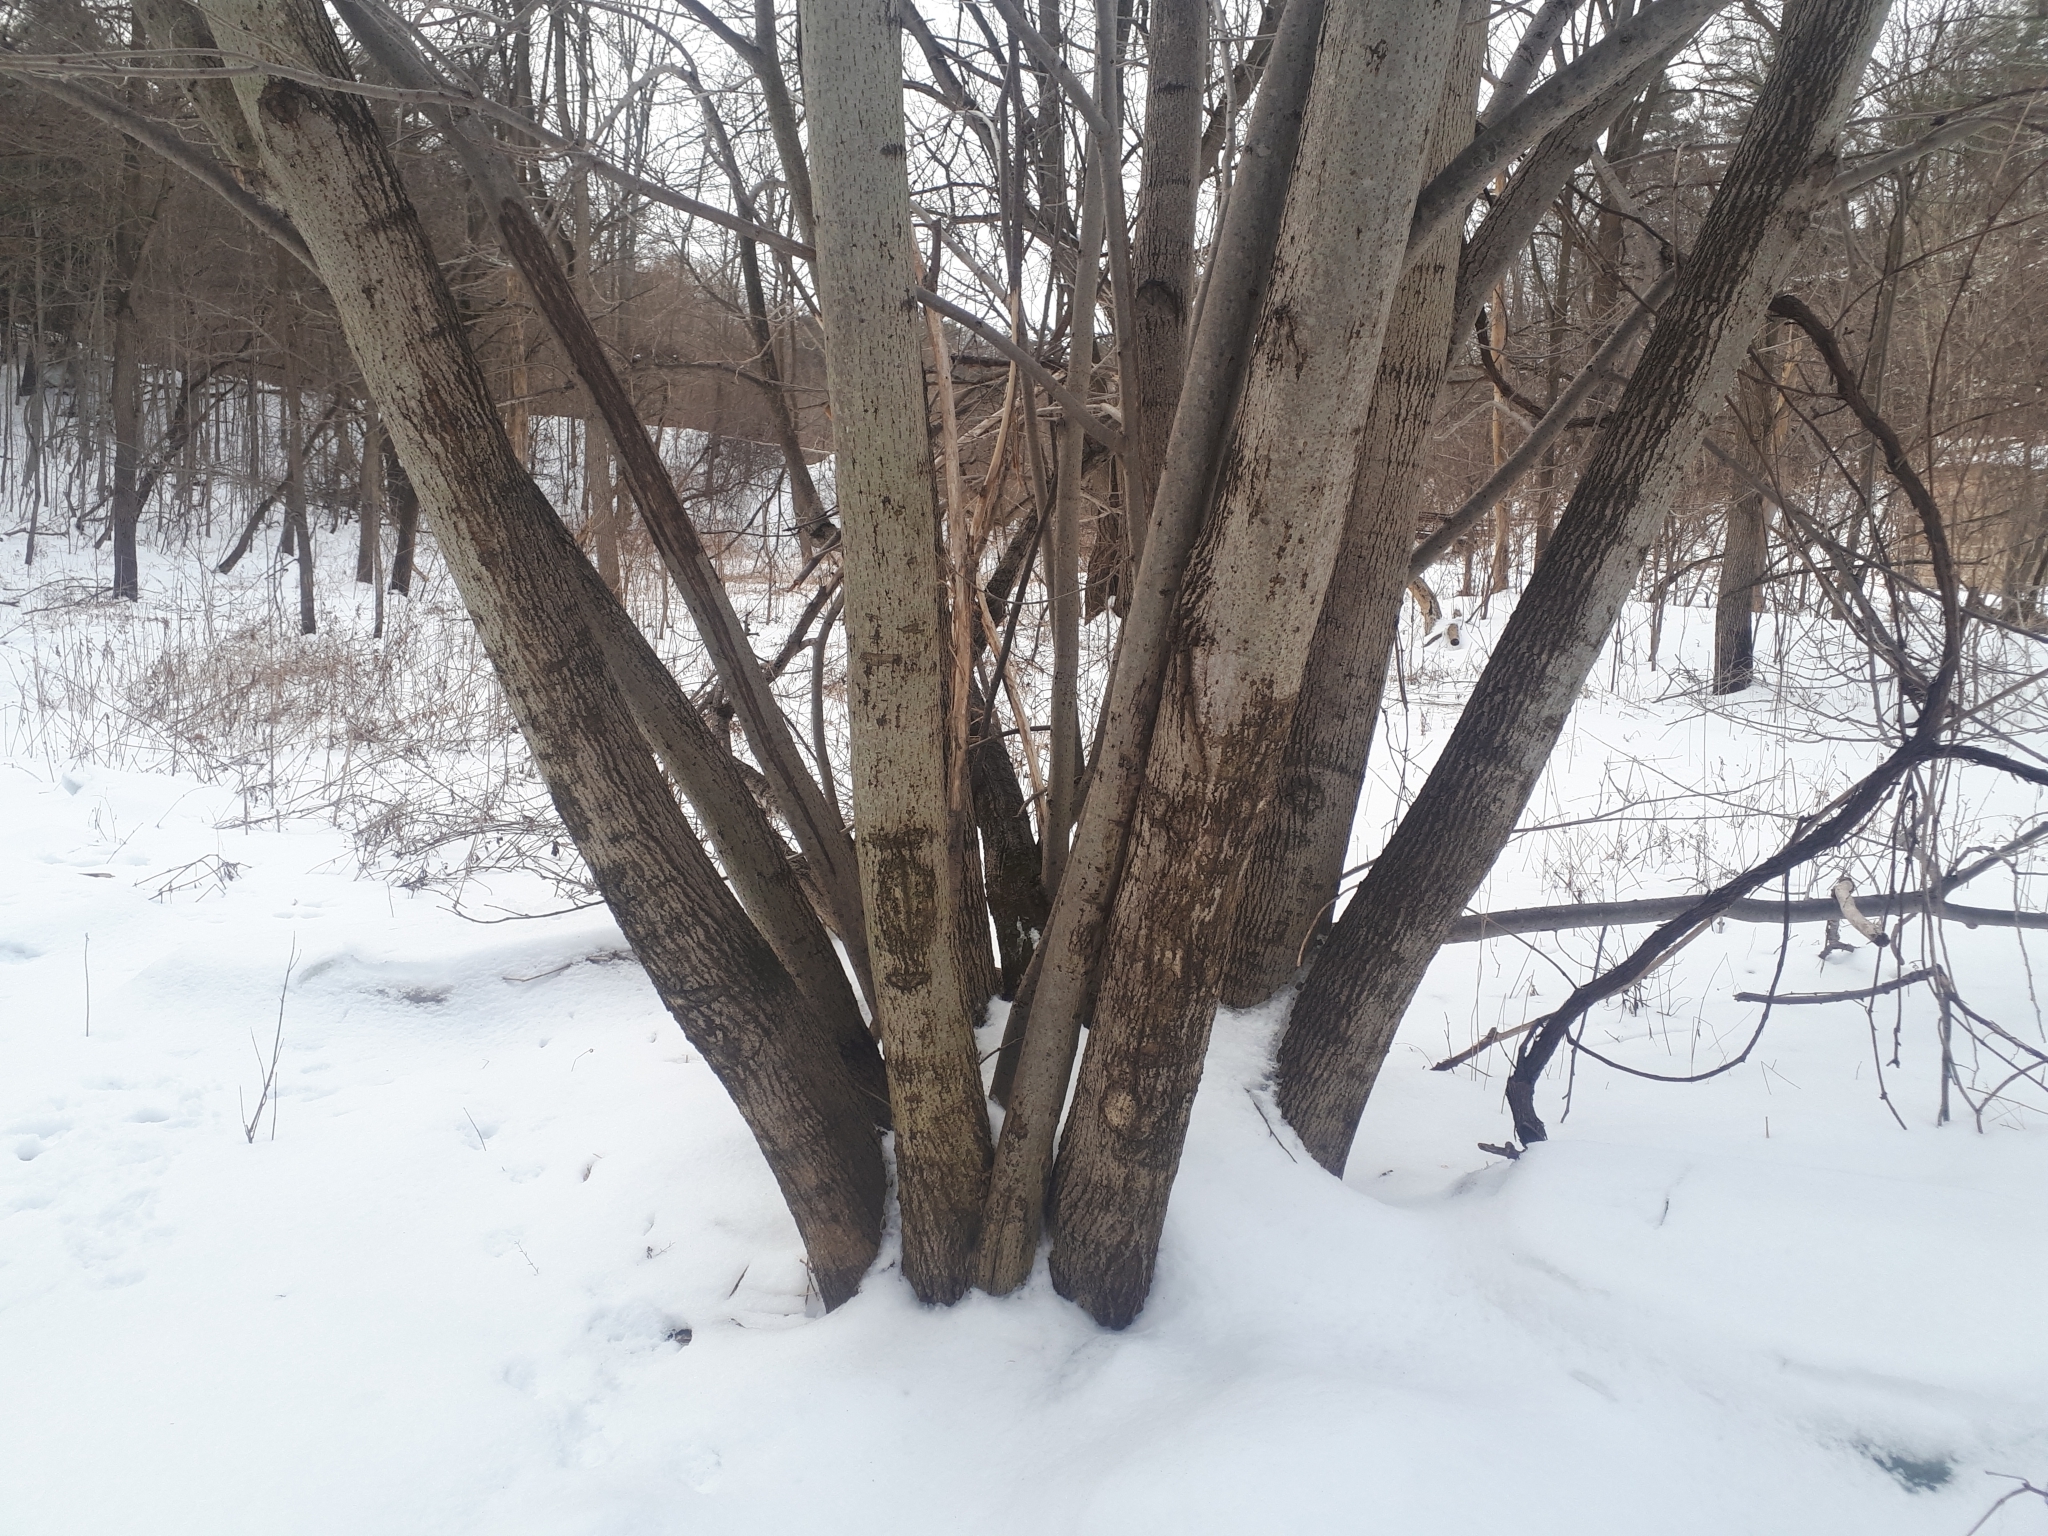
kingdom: Plantae
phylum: Tracheophyta
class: Magnoliopsida
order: Malvales
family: Malvaceae
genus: Tilia
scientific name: Tilia americana
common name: Basswood
